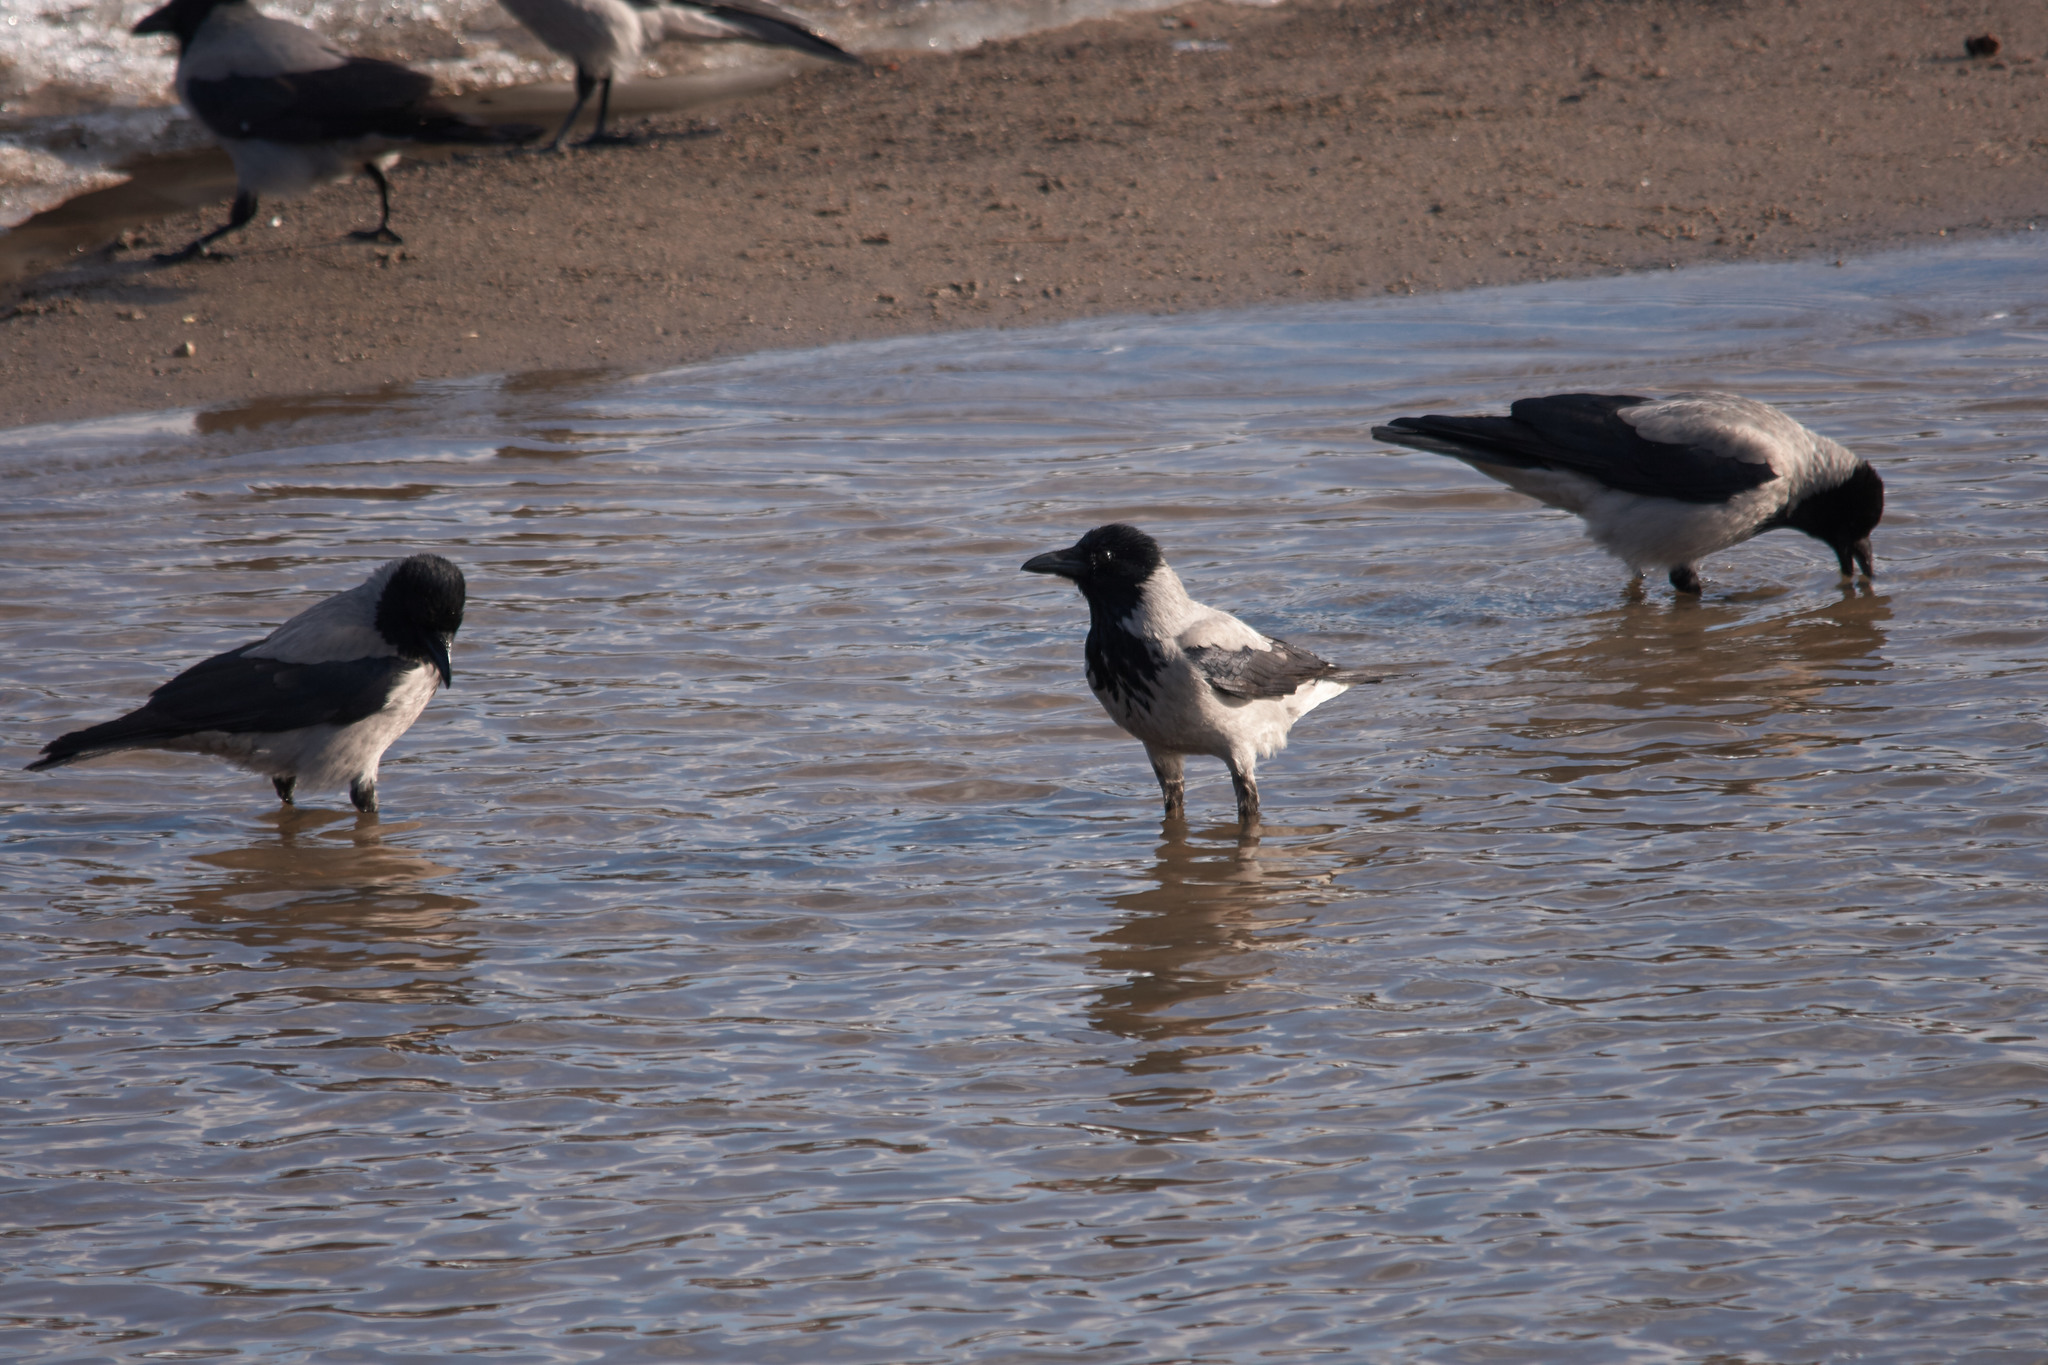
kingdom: Animalia
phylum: Chordata
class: Aves
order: Passeriformes
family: Corvidae
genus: Corvus
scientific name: Corvus cornix
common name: Hooded crow
